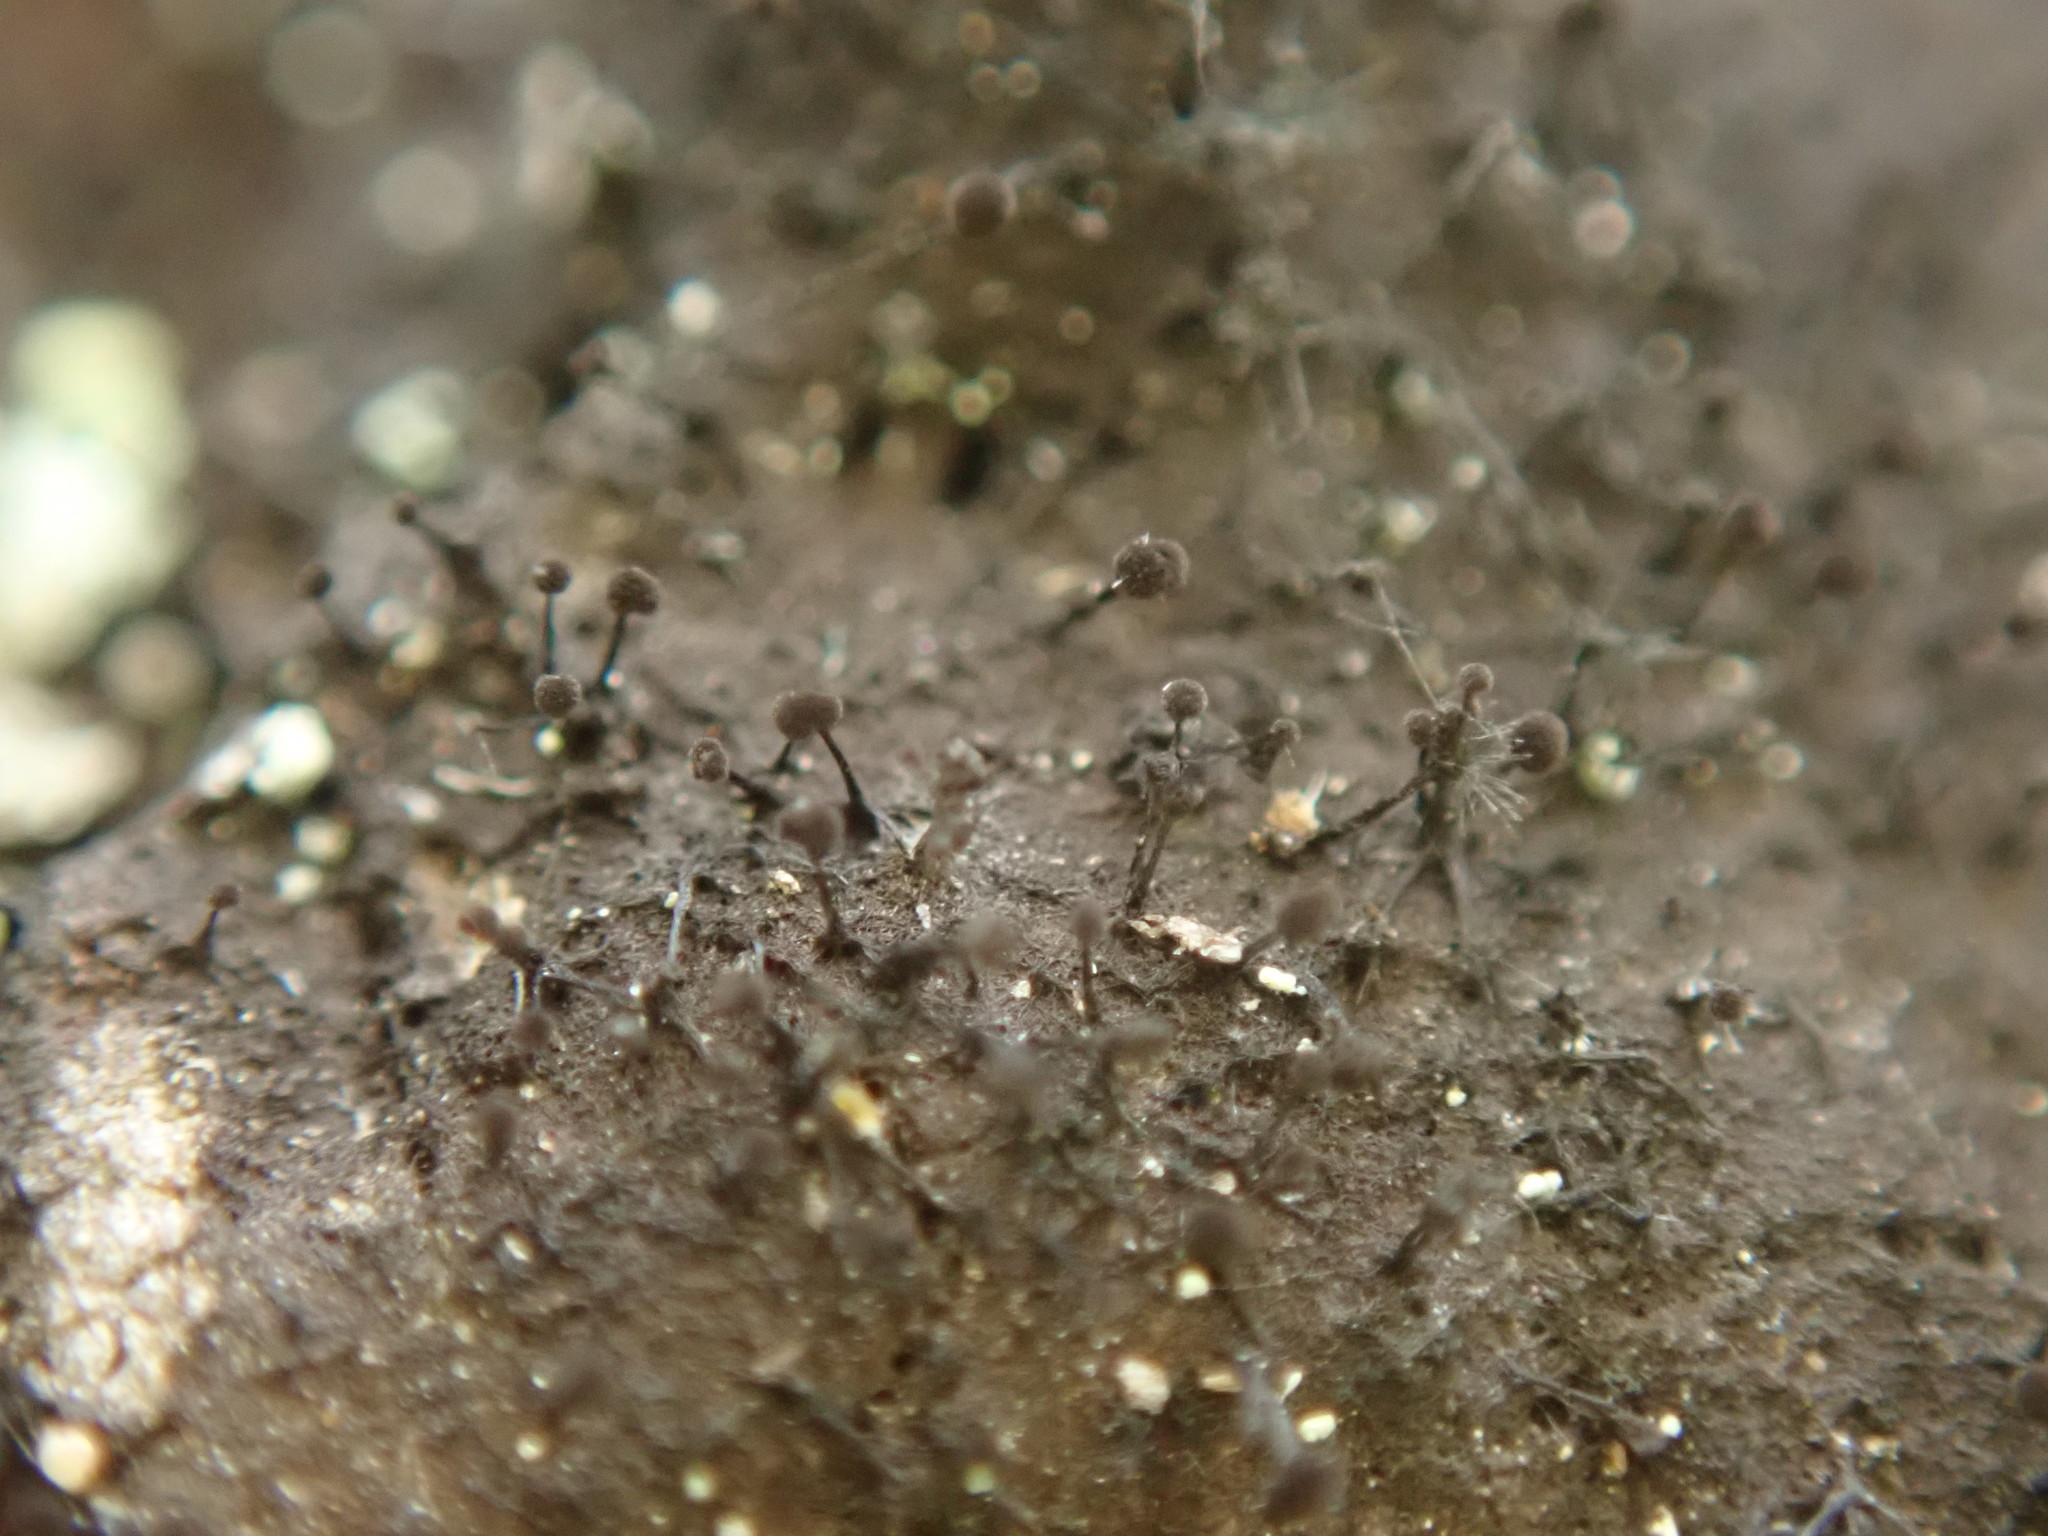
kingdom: Fungi
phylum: Ascomycota
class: Leotiomycetes
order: Helotiales
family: Amorphothecaceae
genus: Sorocybe
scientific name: Sorocybe resinae
